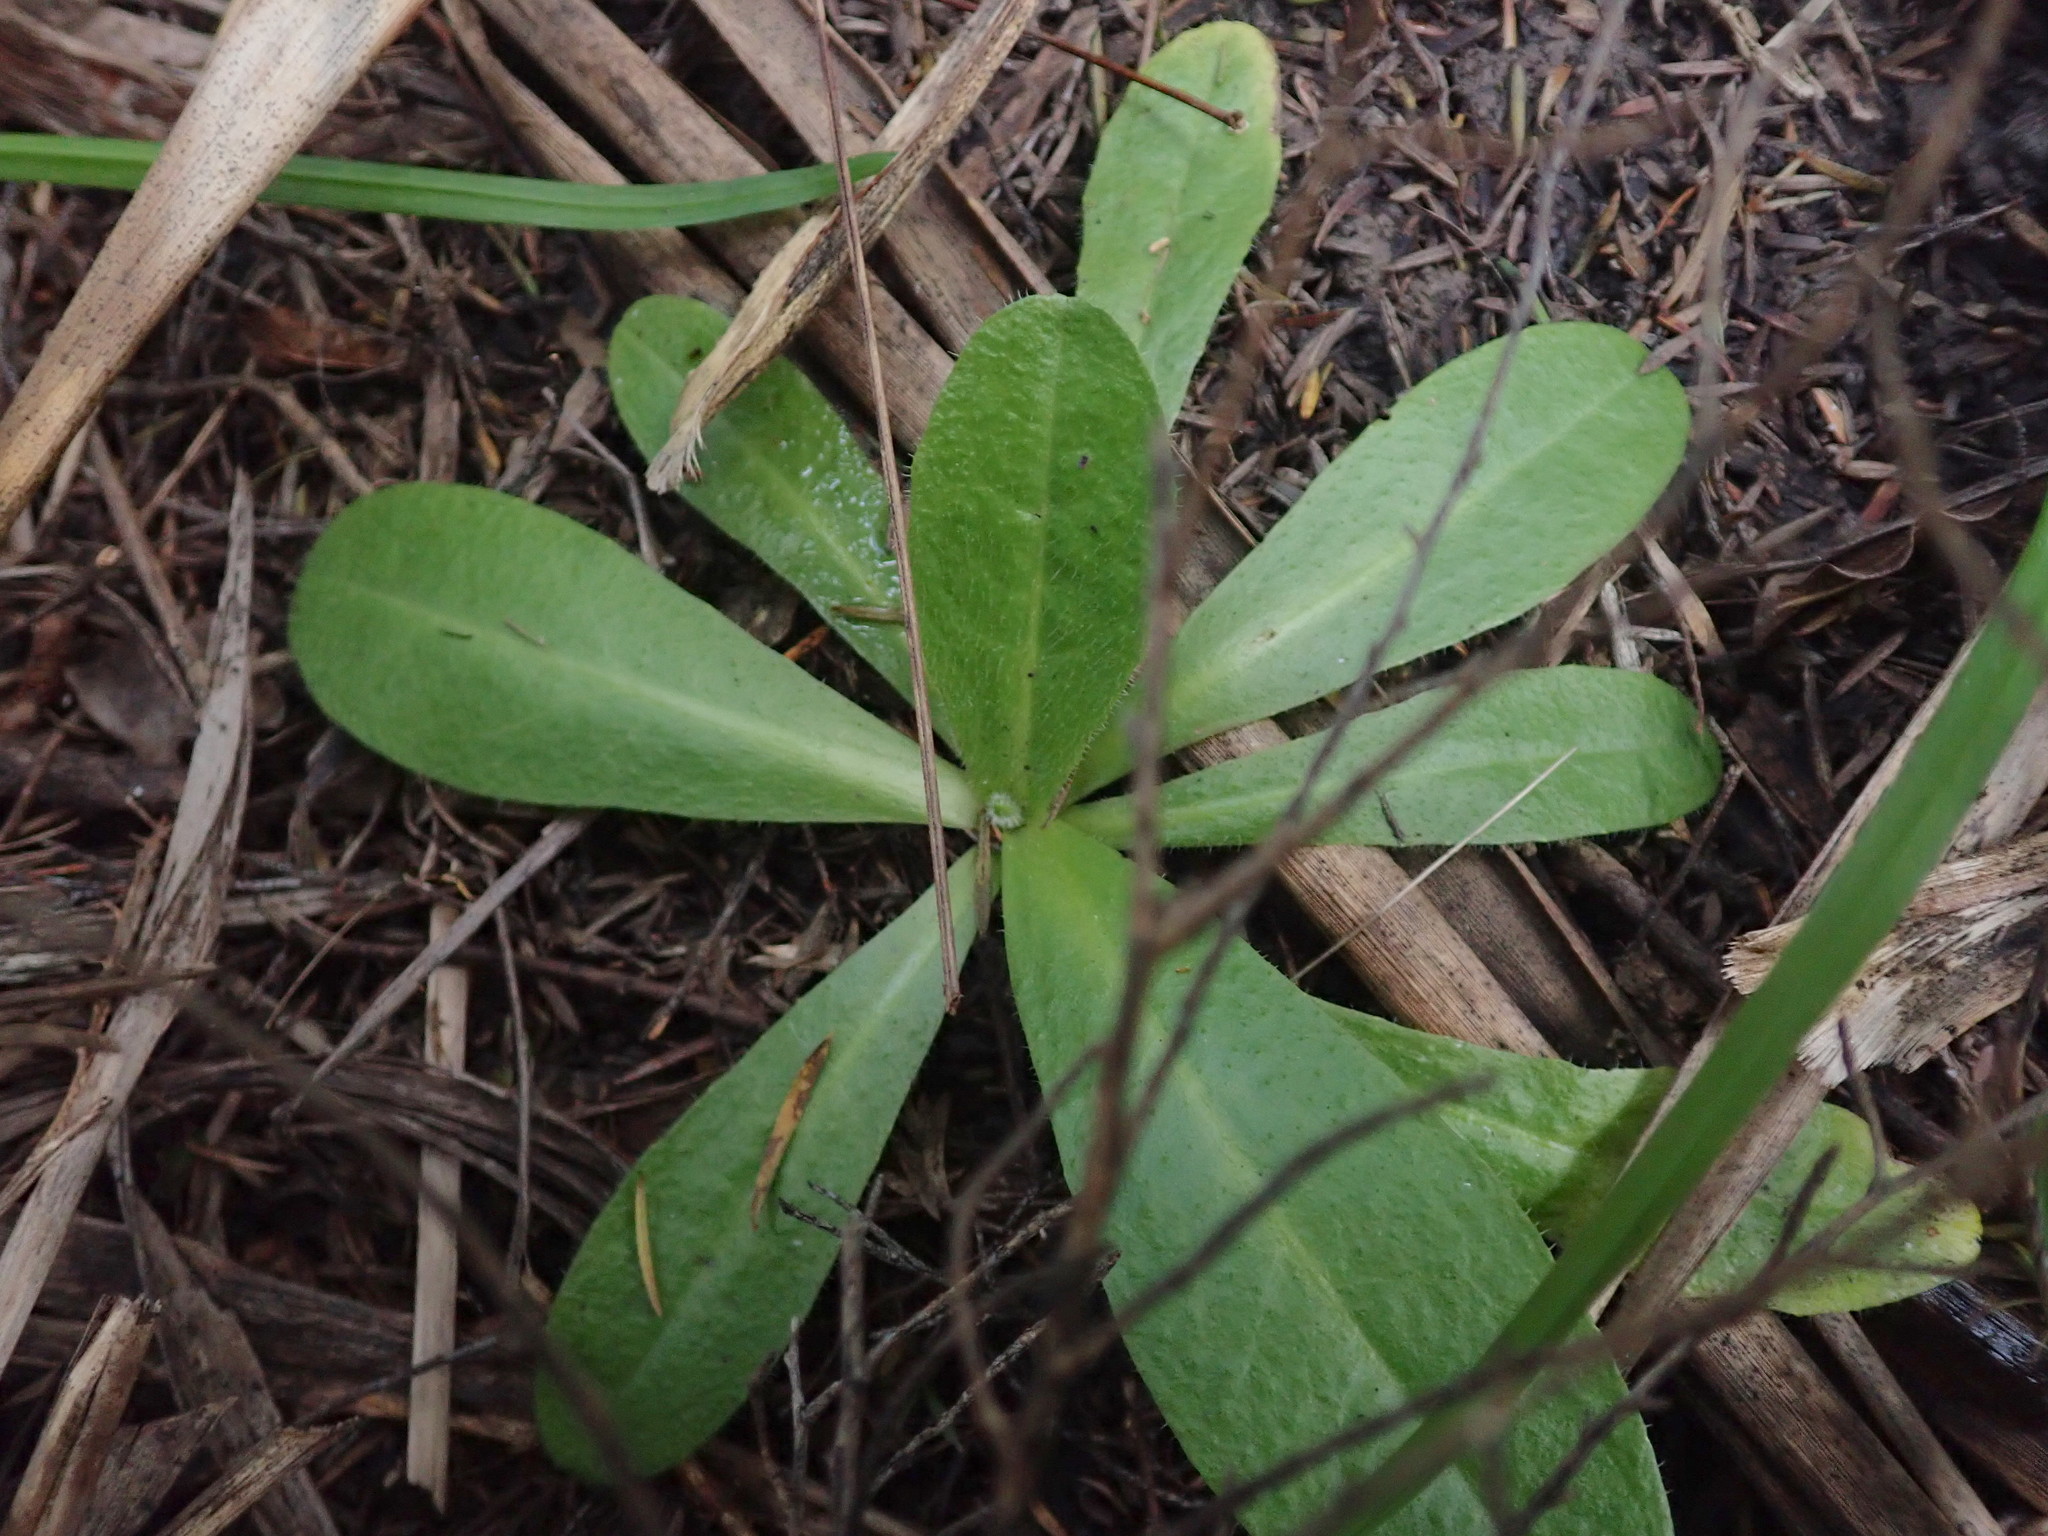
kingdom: Plantae
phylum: Tracheophyta
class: Magnoliopsida
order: Asterales
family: Asteraceae
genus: Hypochaeris
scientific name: Hypochaeris radicata
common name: Flatweed
